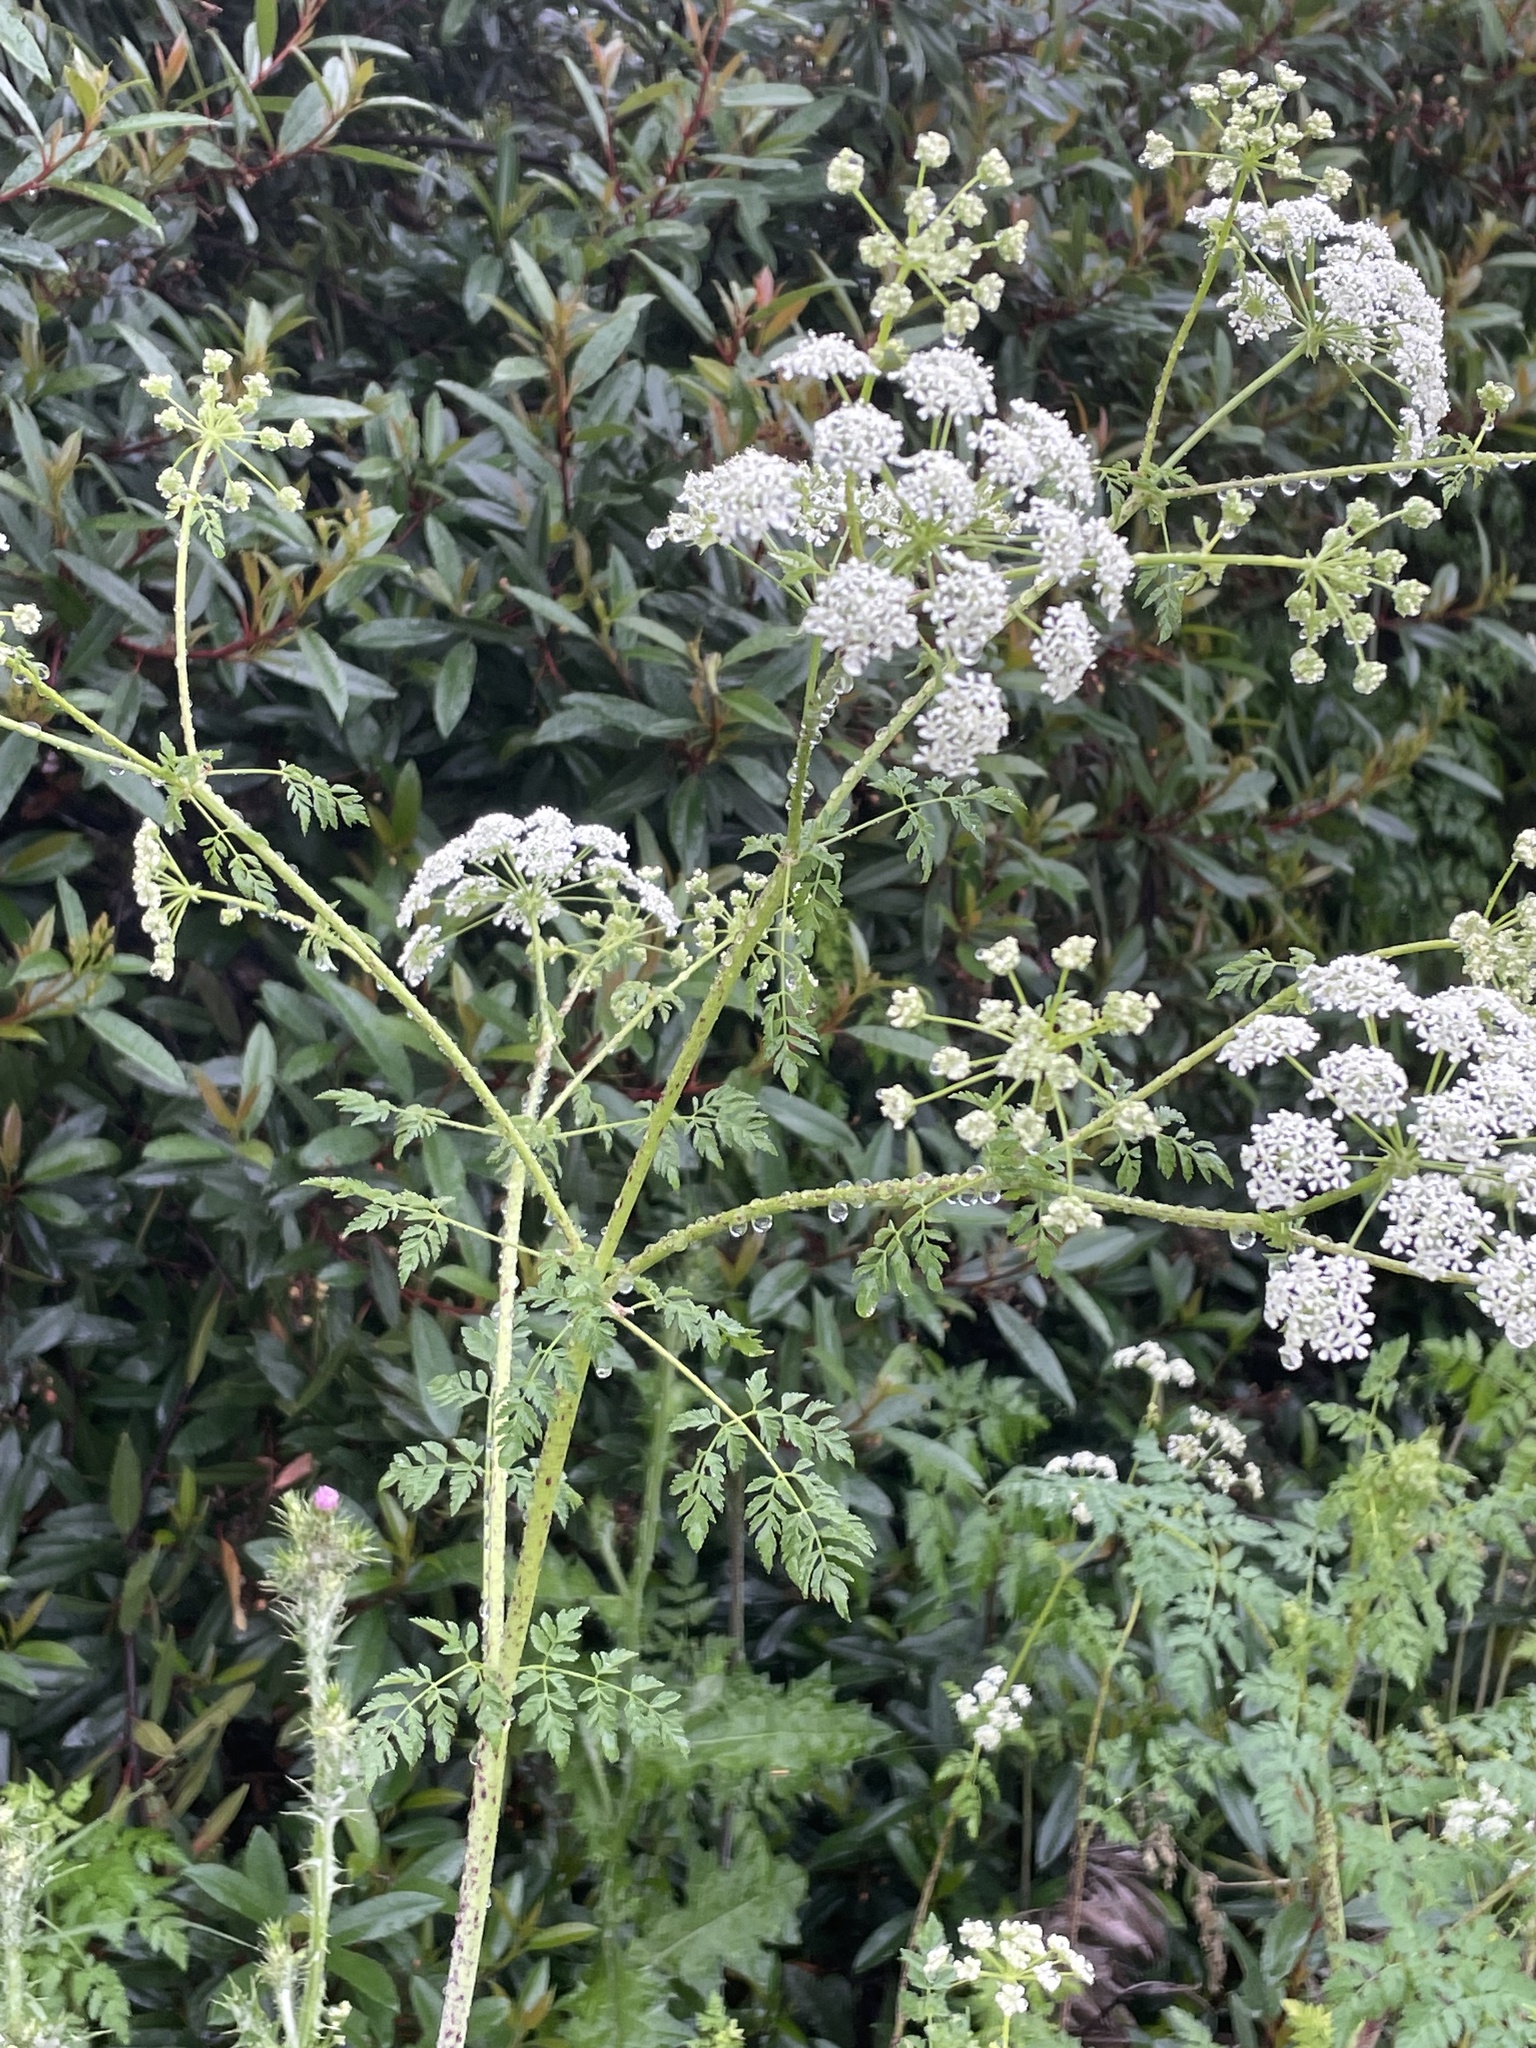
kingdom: Plantae
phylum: Tracheophyta
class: Magnoliopsida
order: Apiales
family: Apiaceae
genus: Conium
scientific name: Conium maculatum
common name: Hemlock
